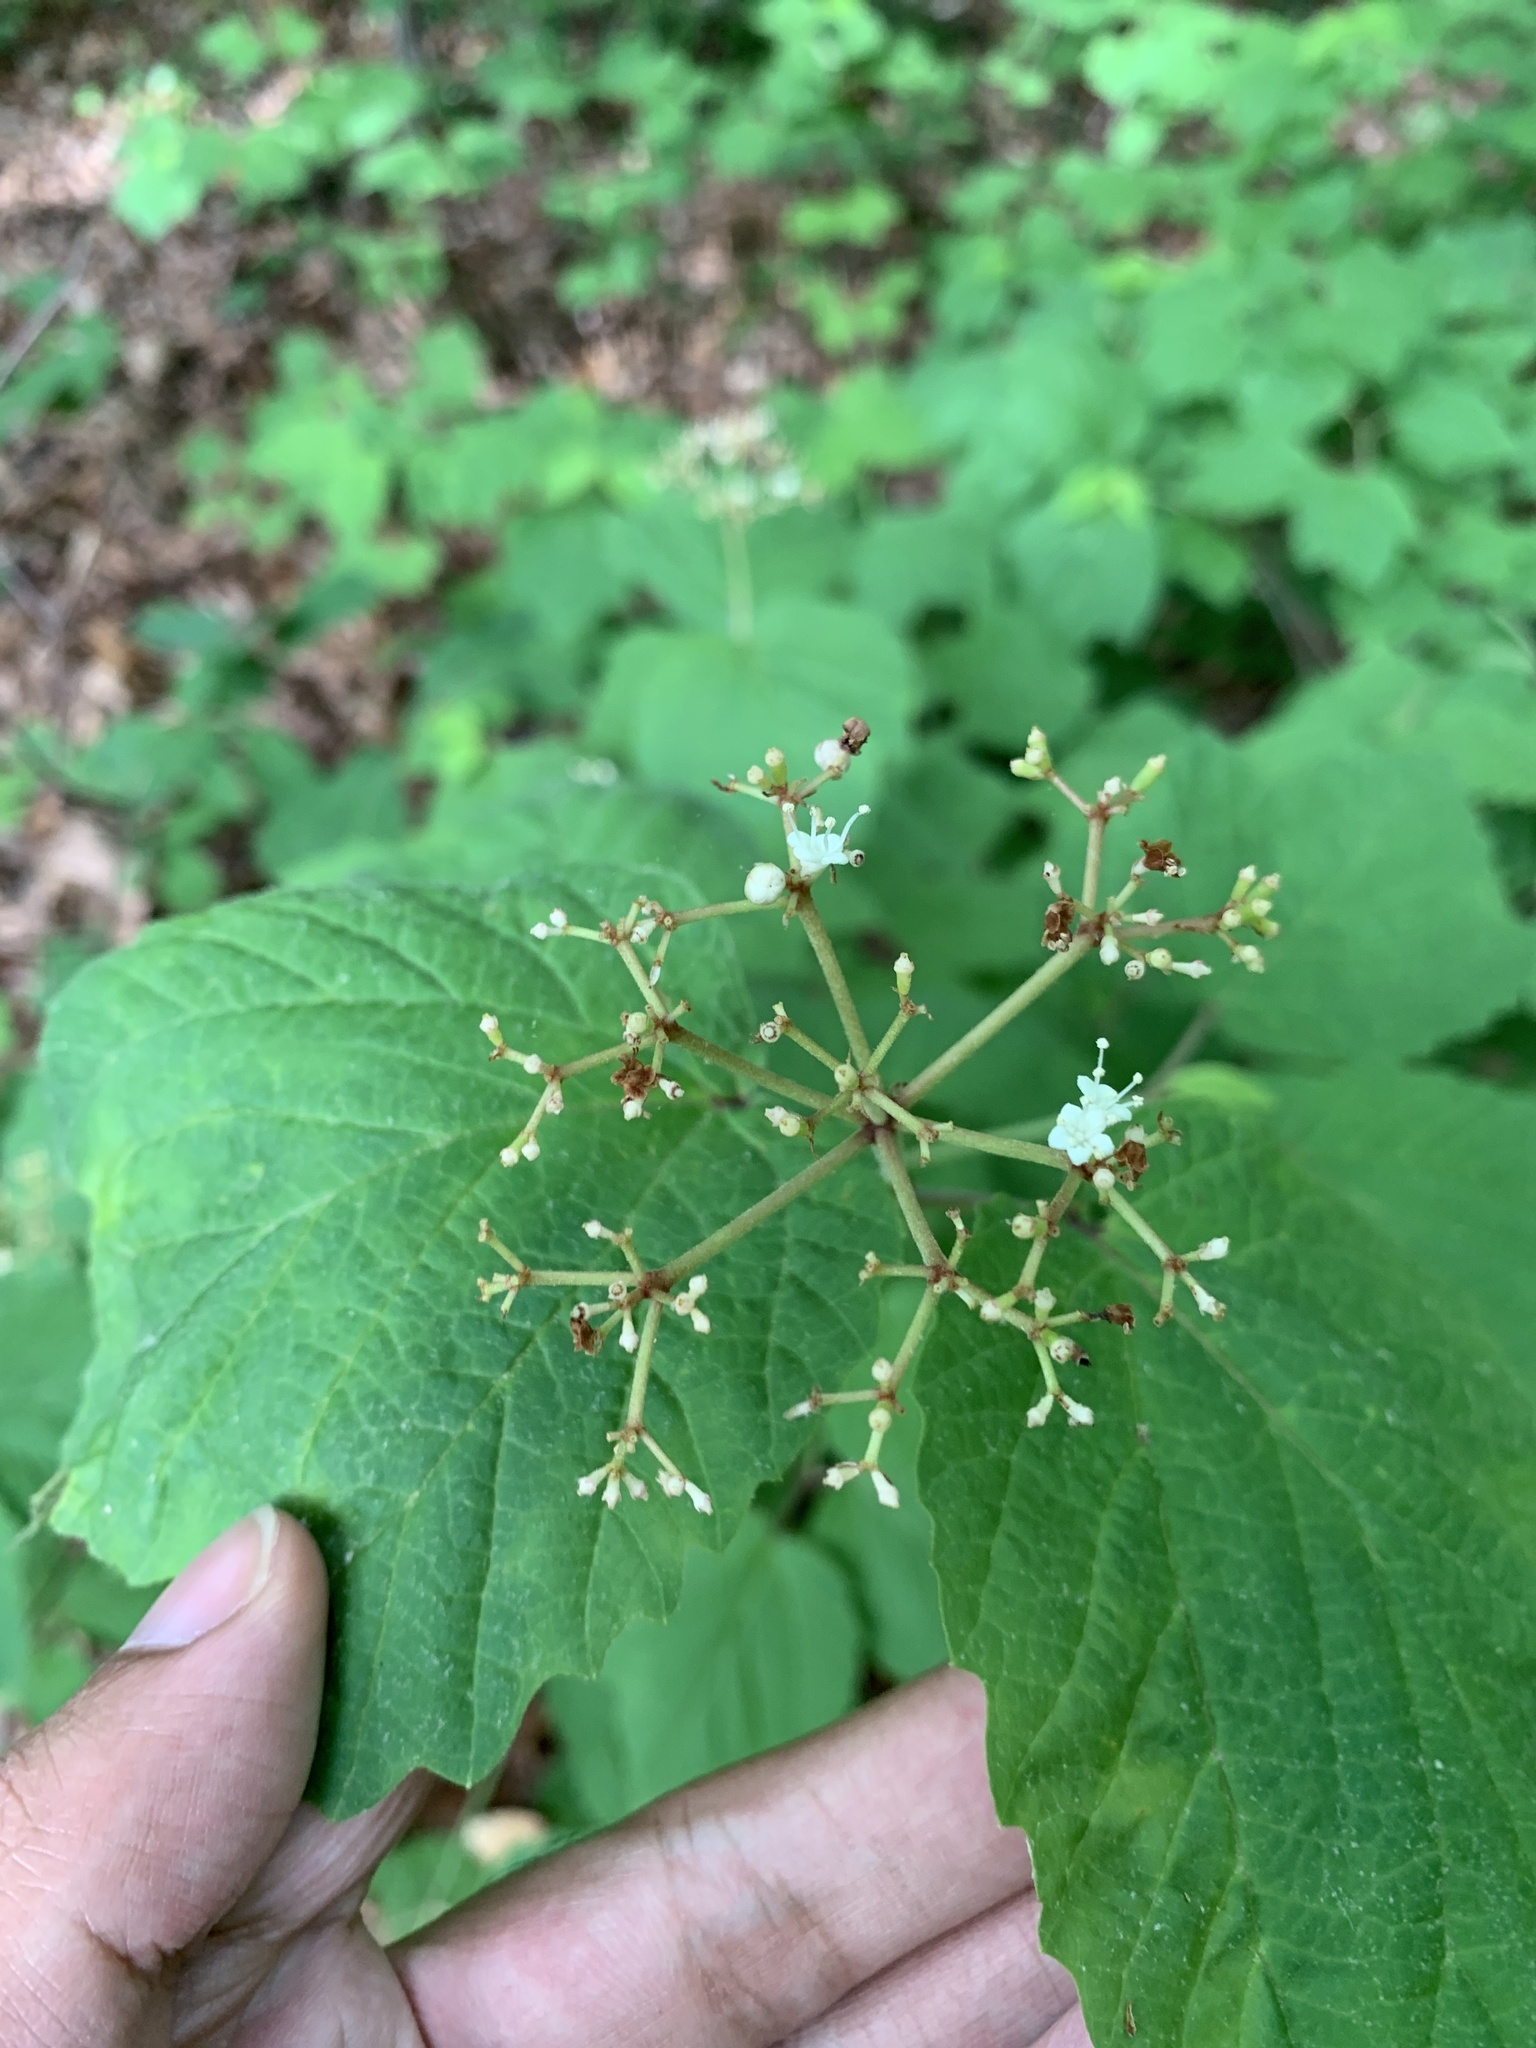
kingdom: Plantae
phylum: Tracheophyta
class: Magnoliopsida
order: Dipsacales
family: Viburnaceae
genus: Viburnum
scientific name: Viburnum acerifolium
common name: Dockmackie
